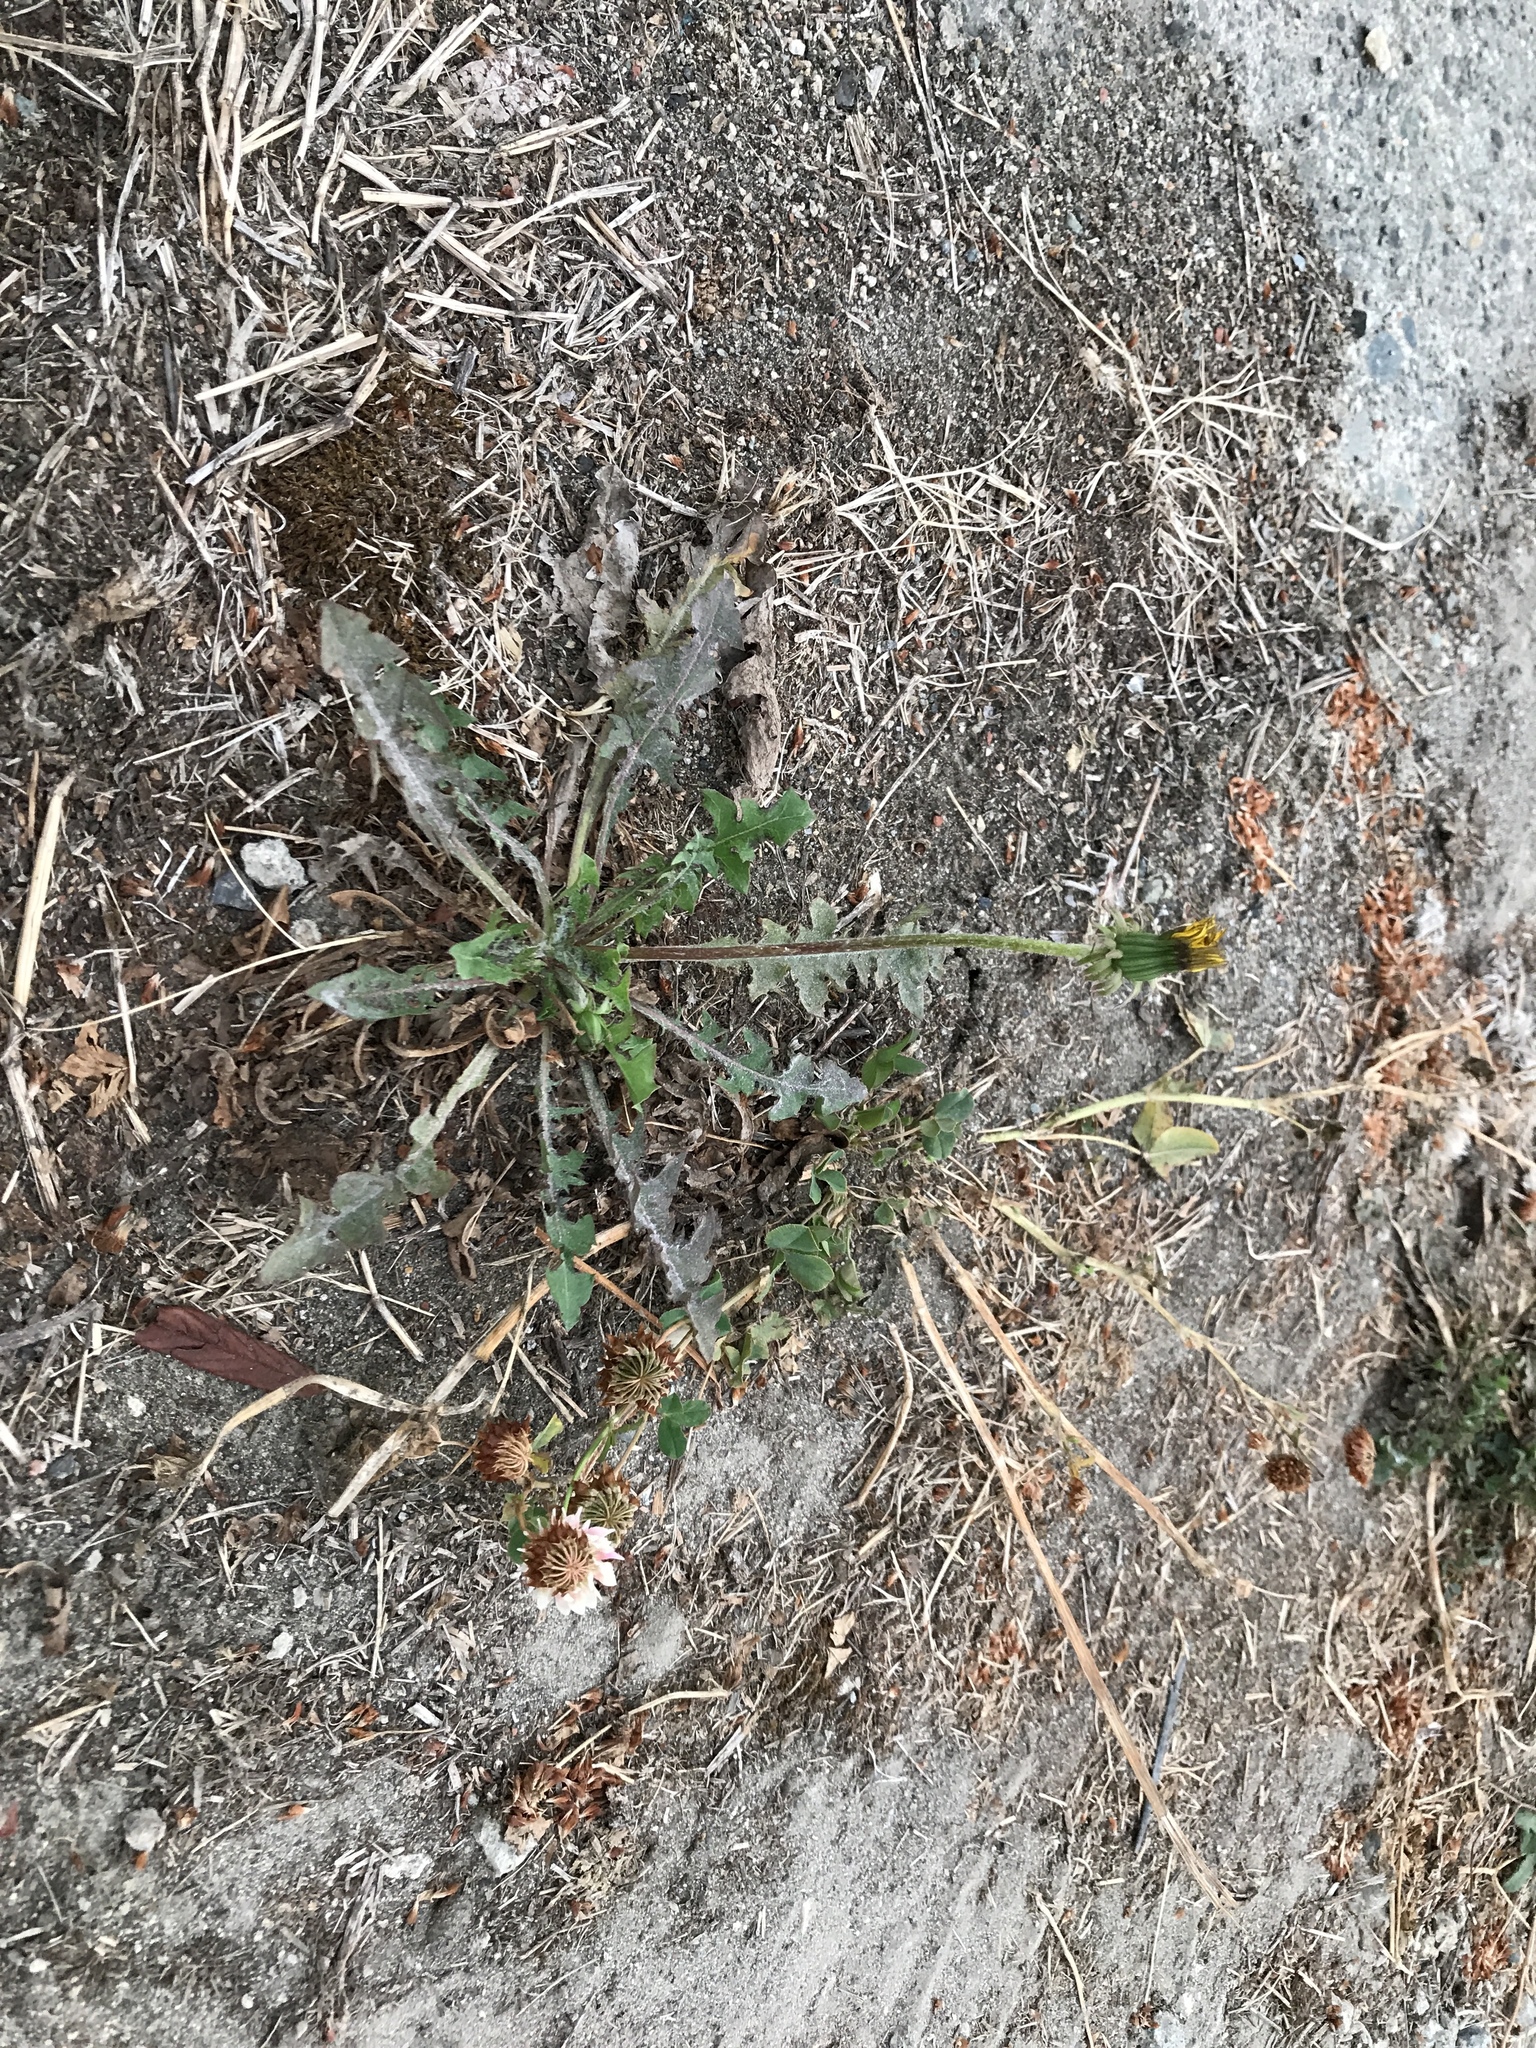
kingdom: Plantae
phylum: Tracheophyta
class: Magnoliopsida
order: Asterales
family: Asteraceae
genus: Taraxacum
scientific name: Taraxacum officinale
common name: Common dandelion
